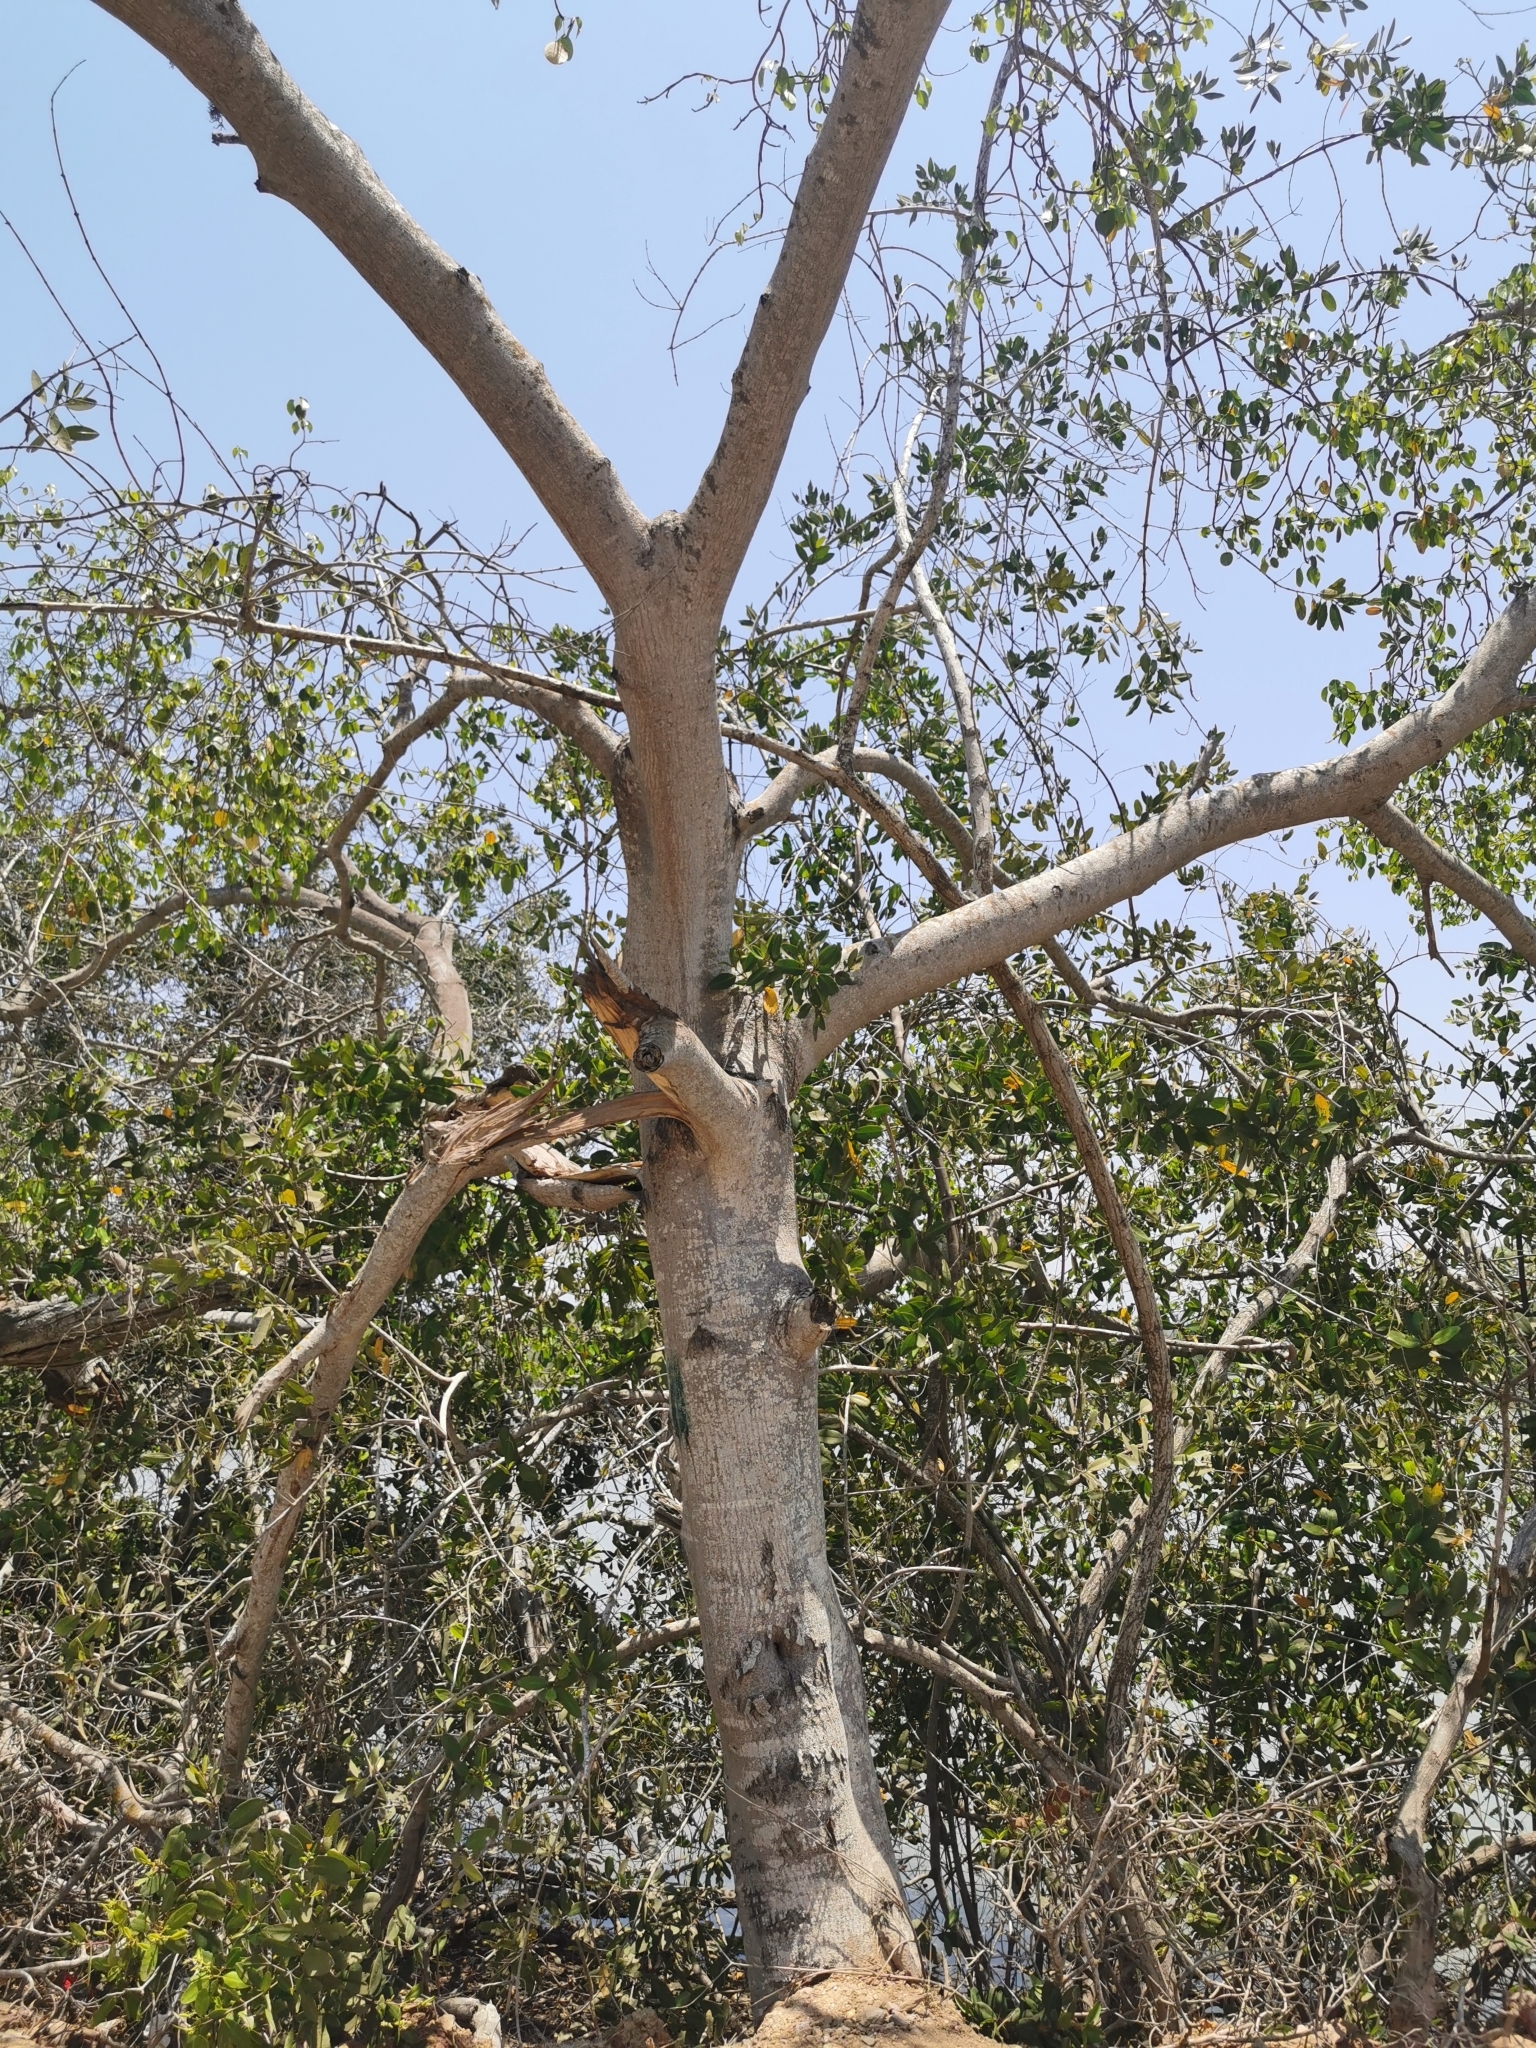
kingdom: Plantae
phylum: Tracheophyta
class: Magnoliopsida
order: Malpighiales
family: Euphorbiaceae
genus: Hippomane
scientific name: Hippomane mancinella
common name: Manchineel
